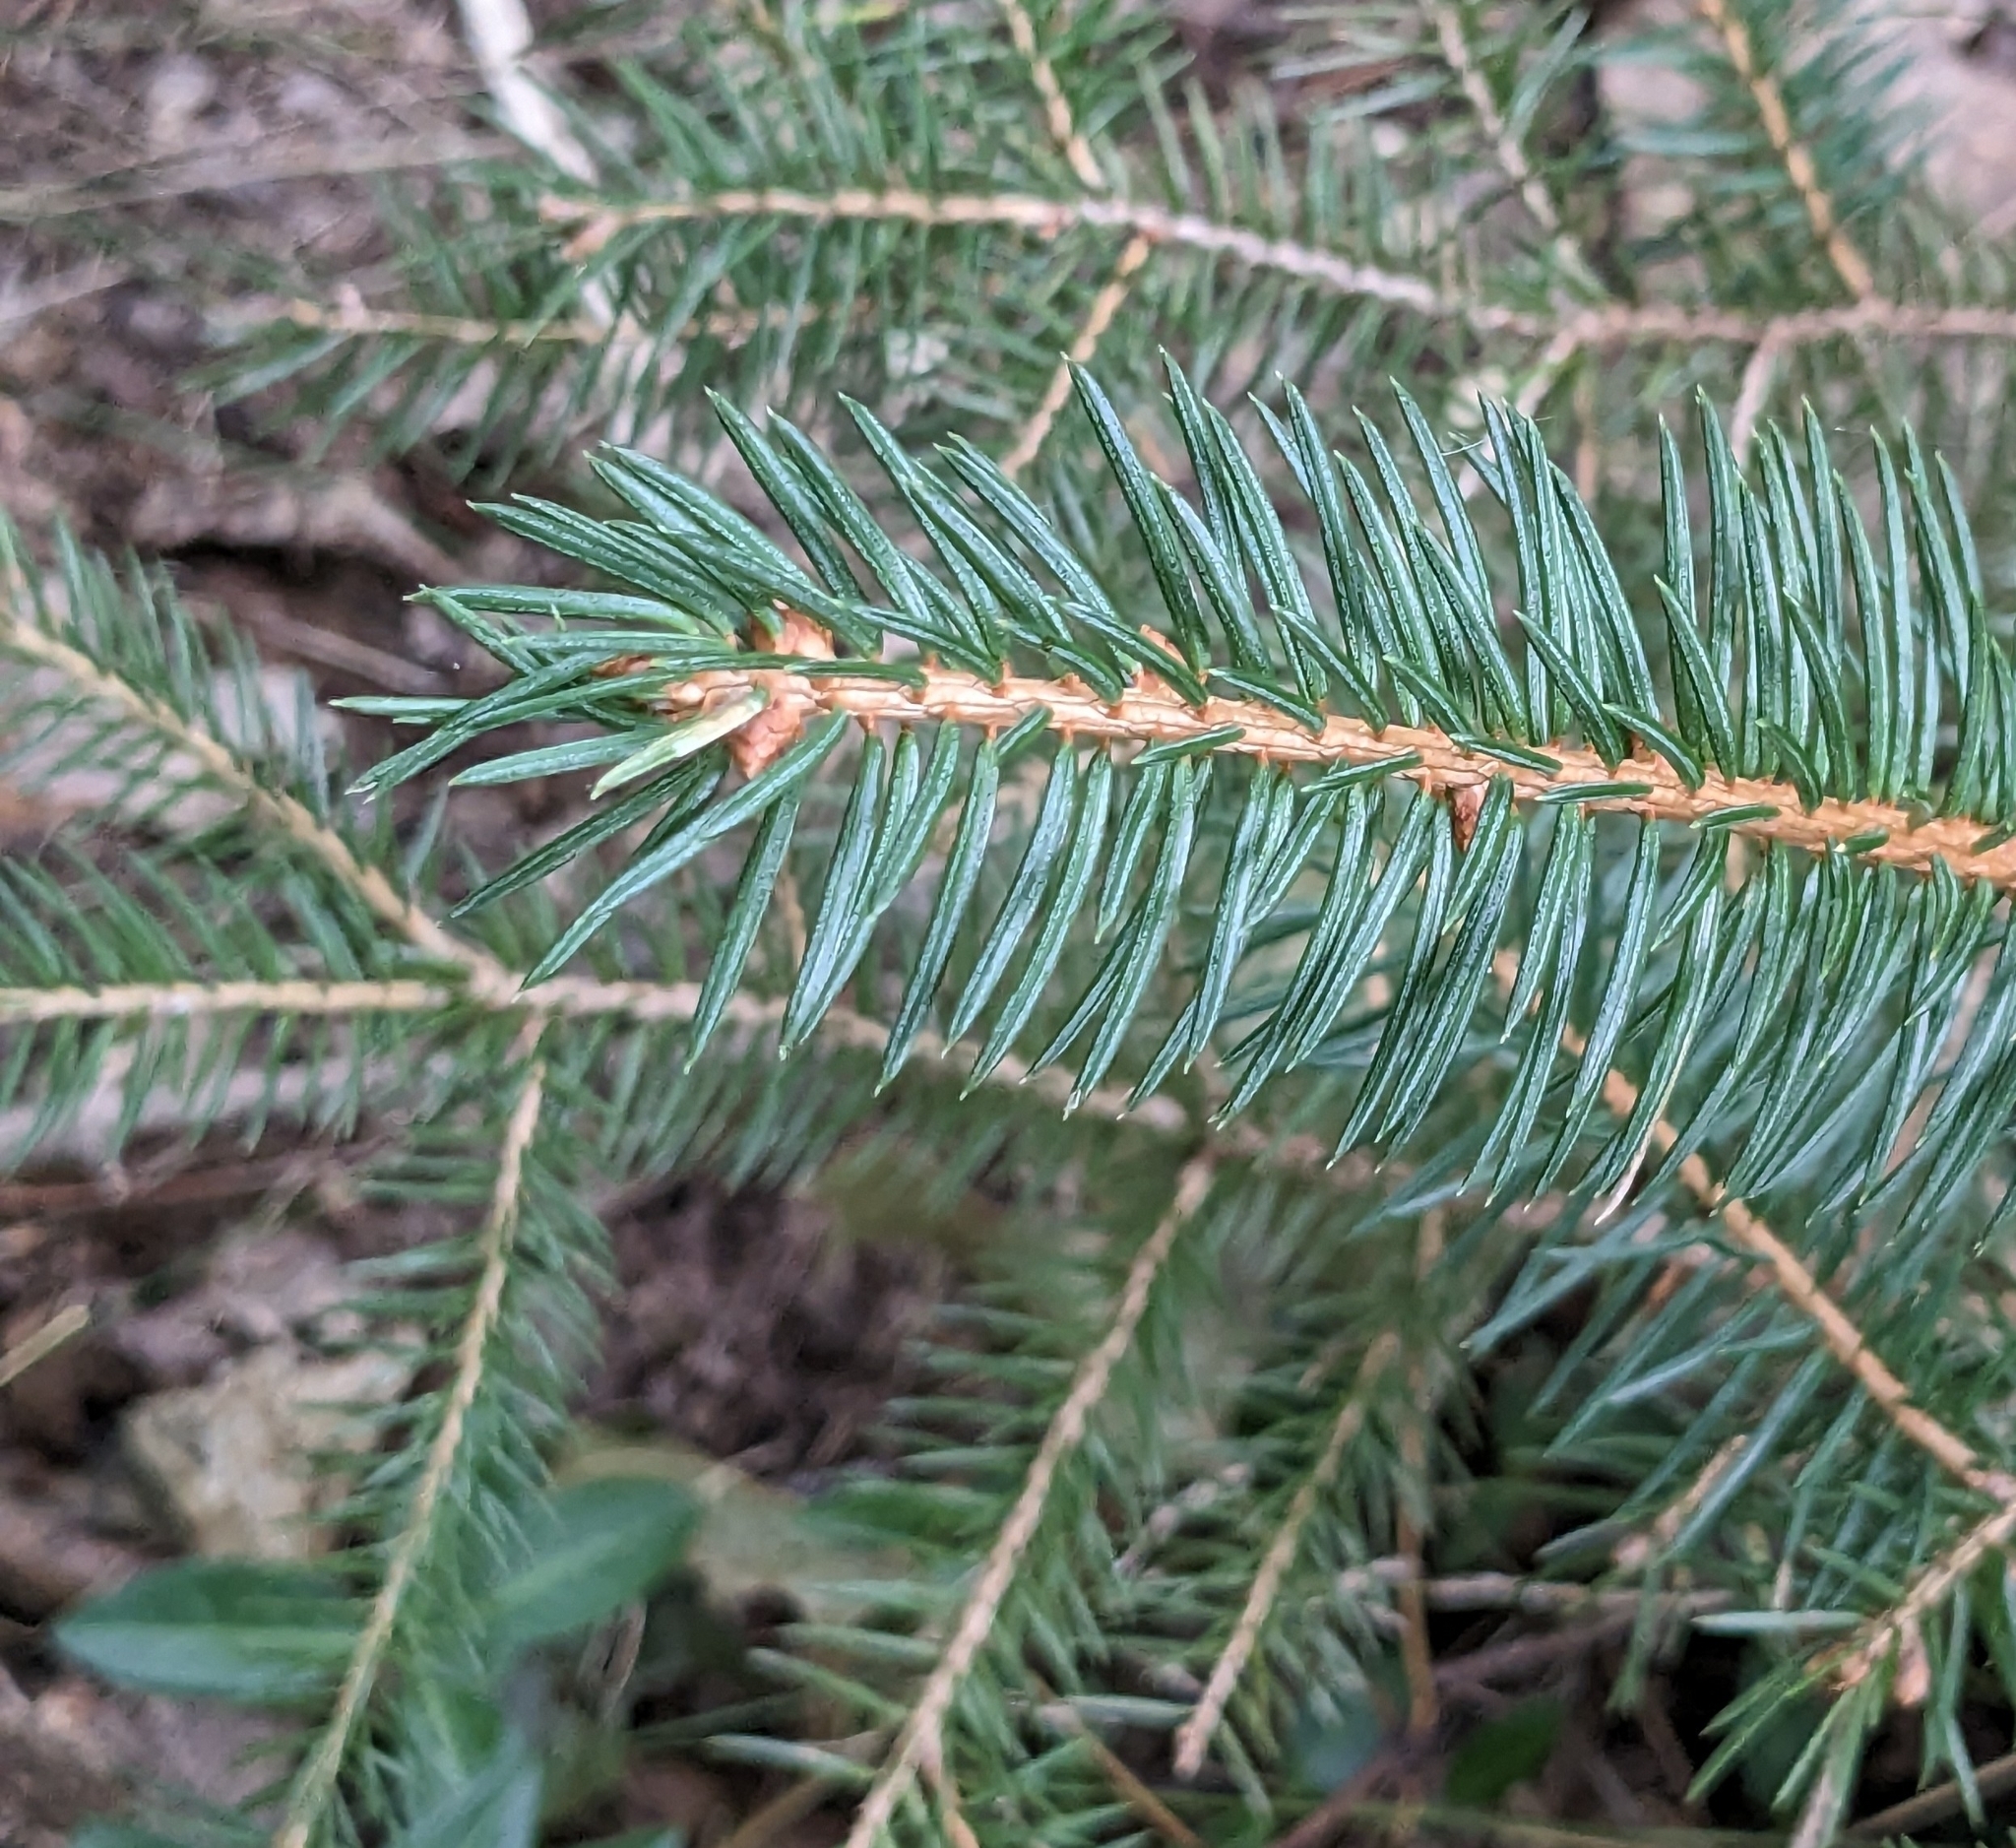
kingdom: Plantae
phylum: Tracheophyta
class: Pinopsida
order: Pinales
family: Pinaceae
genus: Picea
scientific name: Picea abies
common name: Norway spruce
